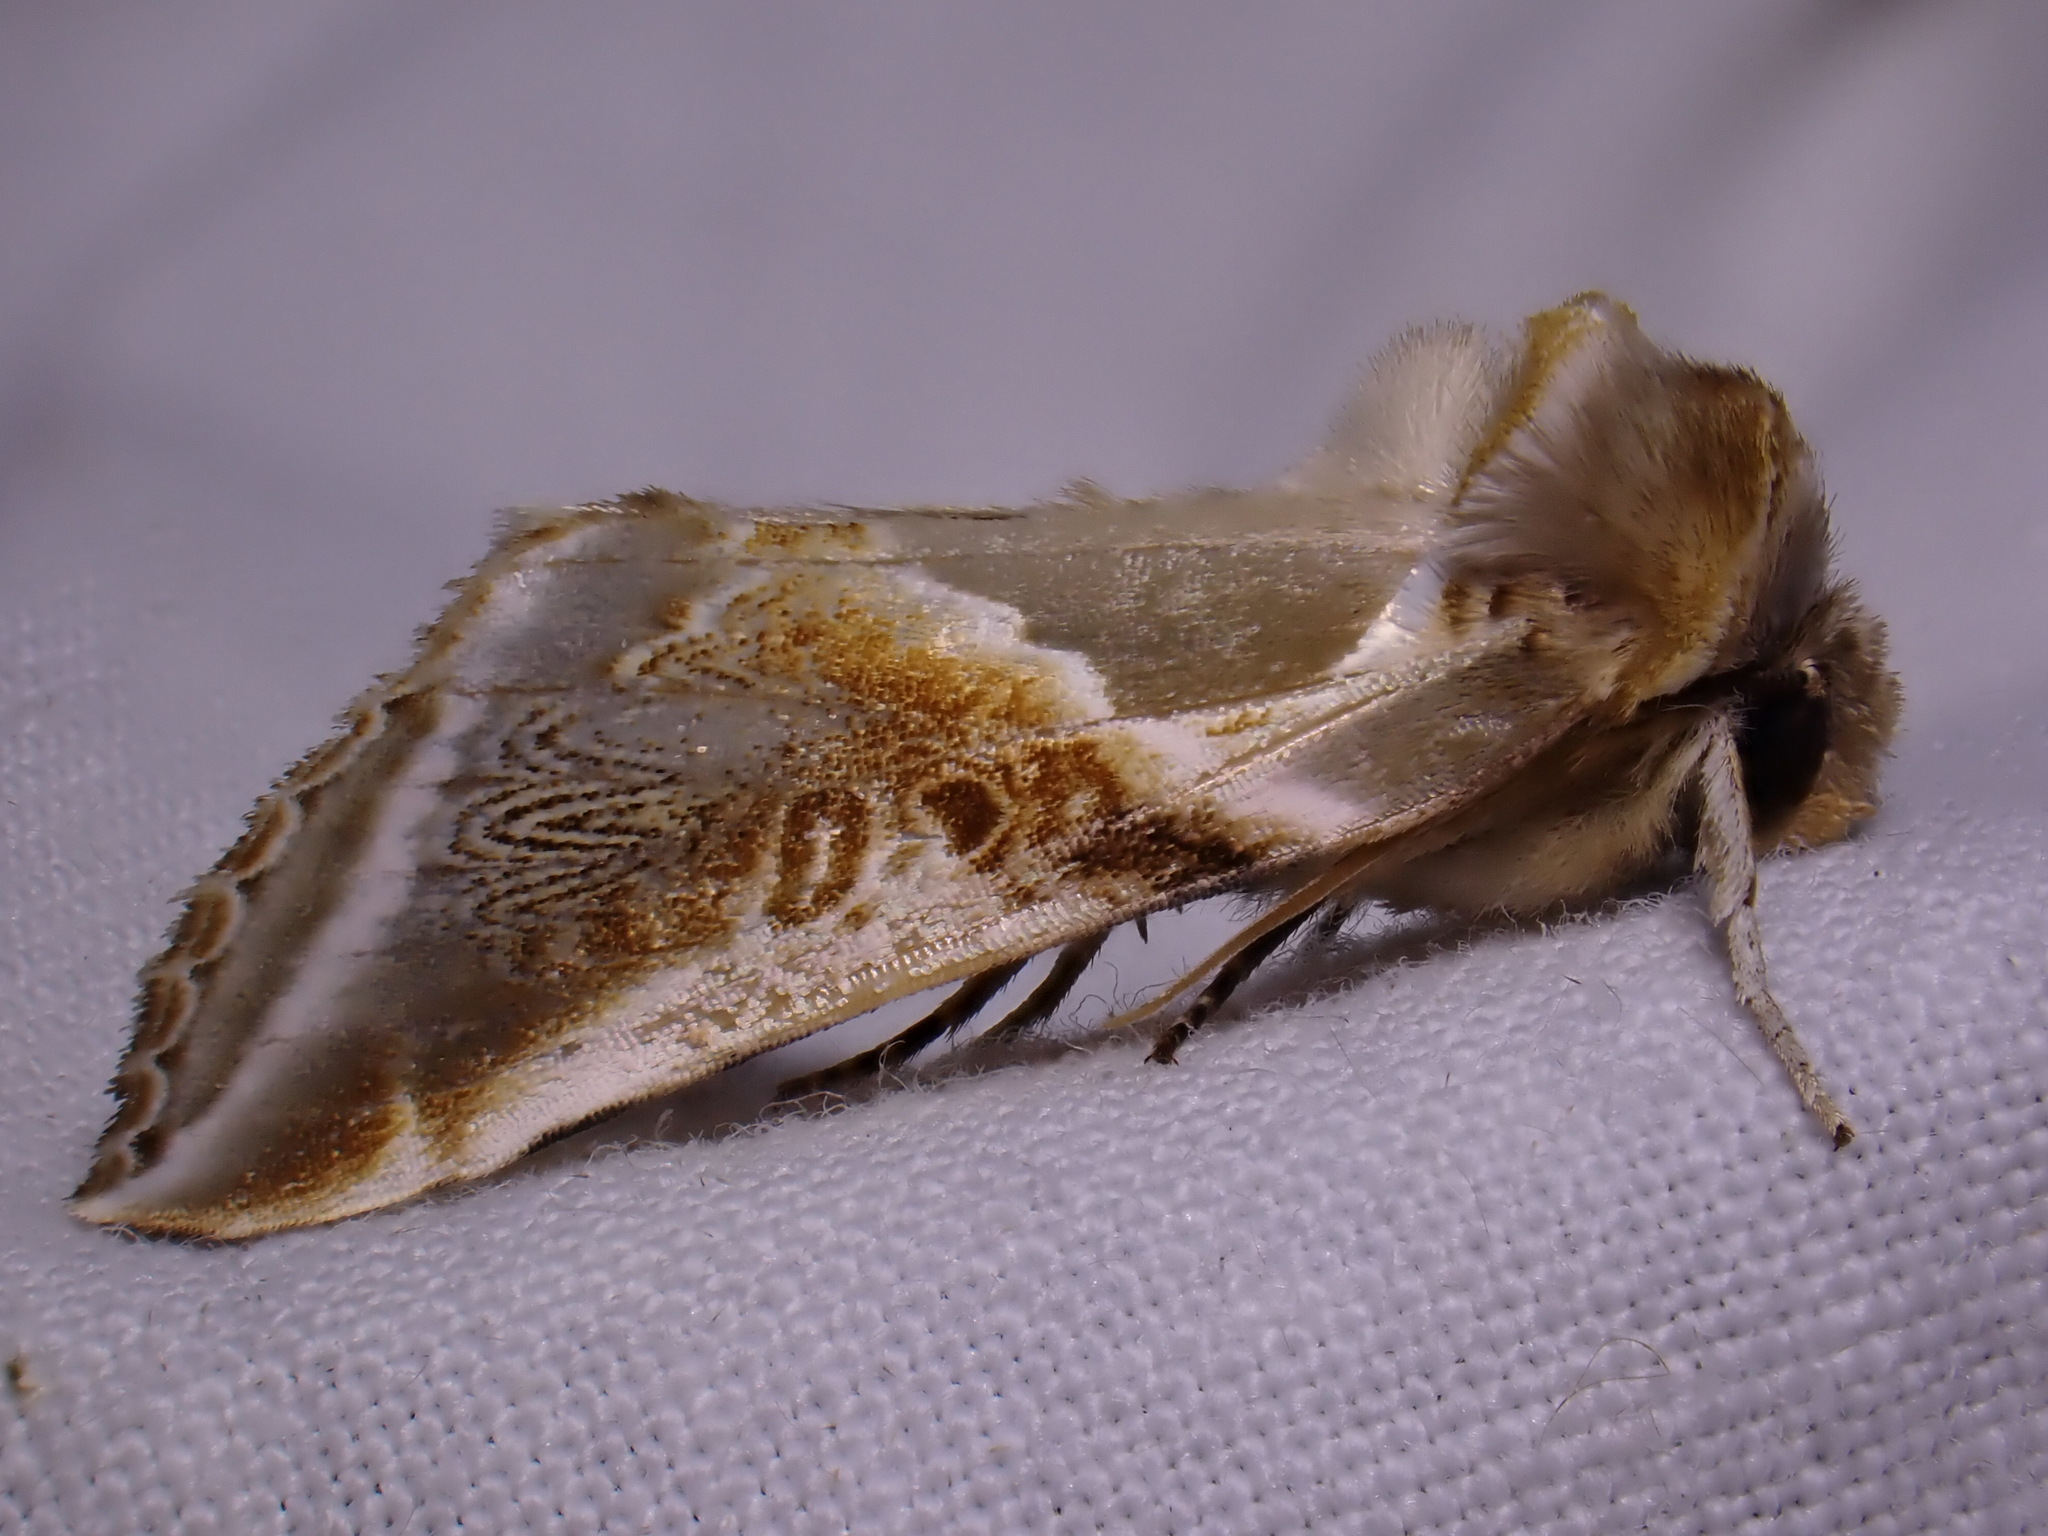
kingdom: Animalia
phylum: Arthropoda
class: Insecta
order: Lepidoptera
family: Drepanidae
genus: Habrosyne
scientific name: Habrosyne pyritoides
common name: Buff arches
